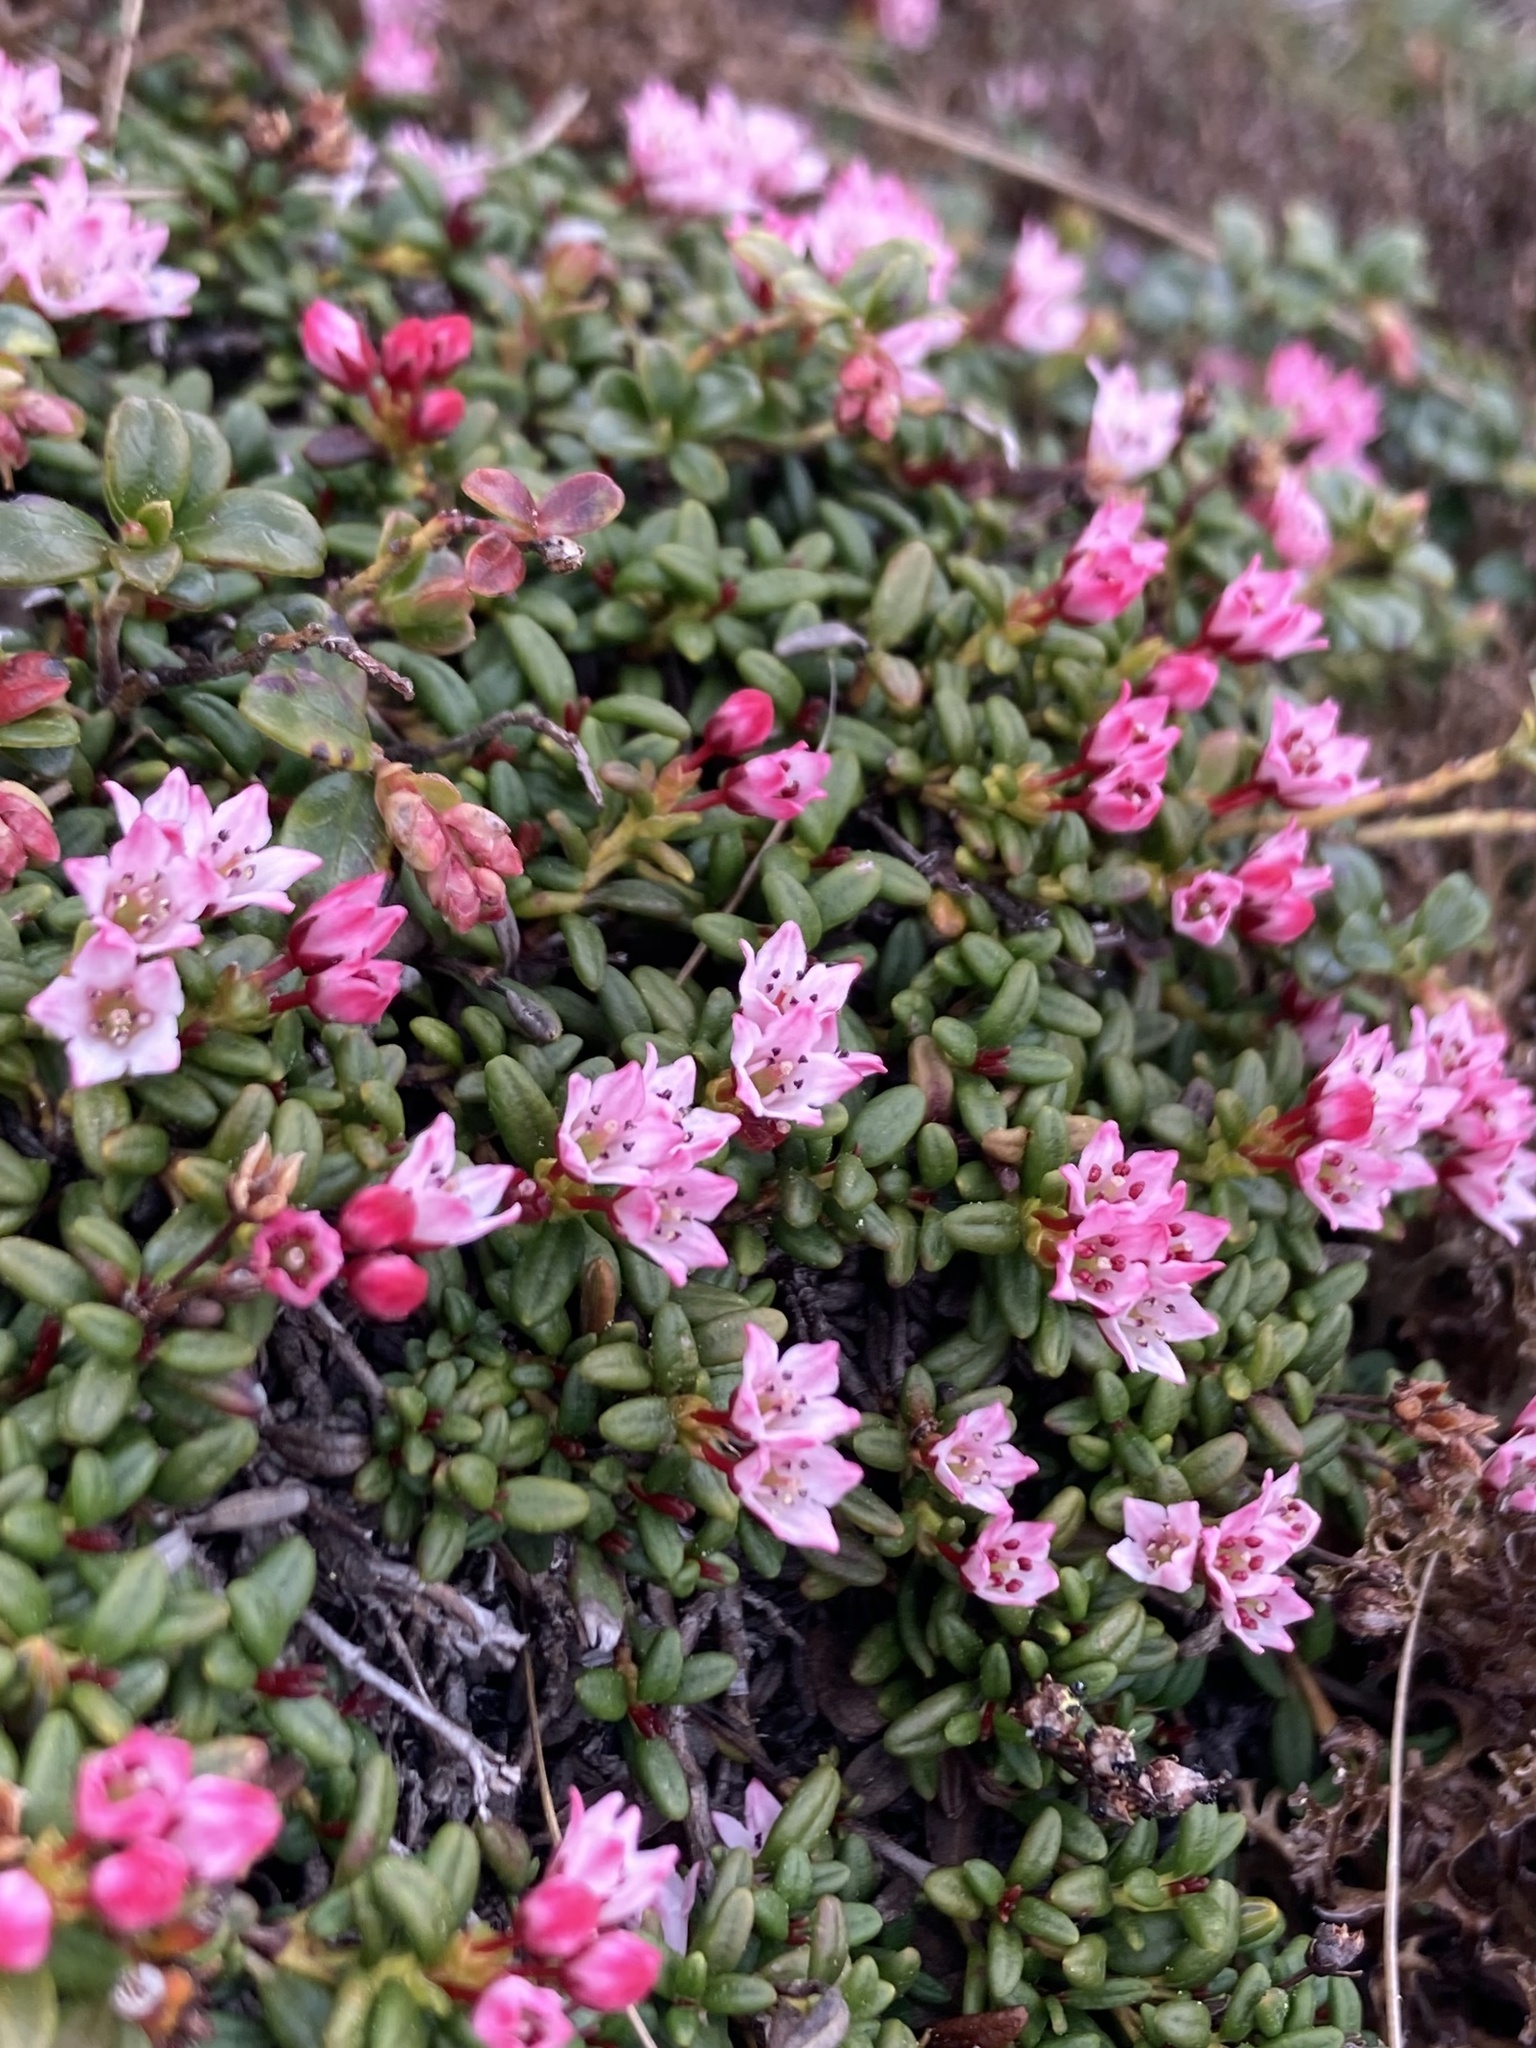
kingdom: Plantae
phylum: Tracheophyta
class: Magnoliopsida
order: Ericales
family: Ericaceae
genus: Kalmia
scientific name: Kalmia procumbens
